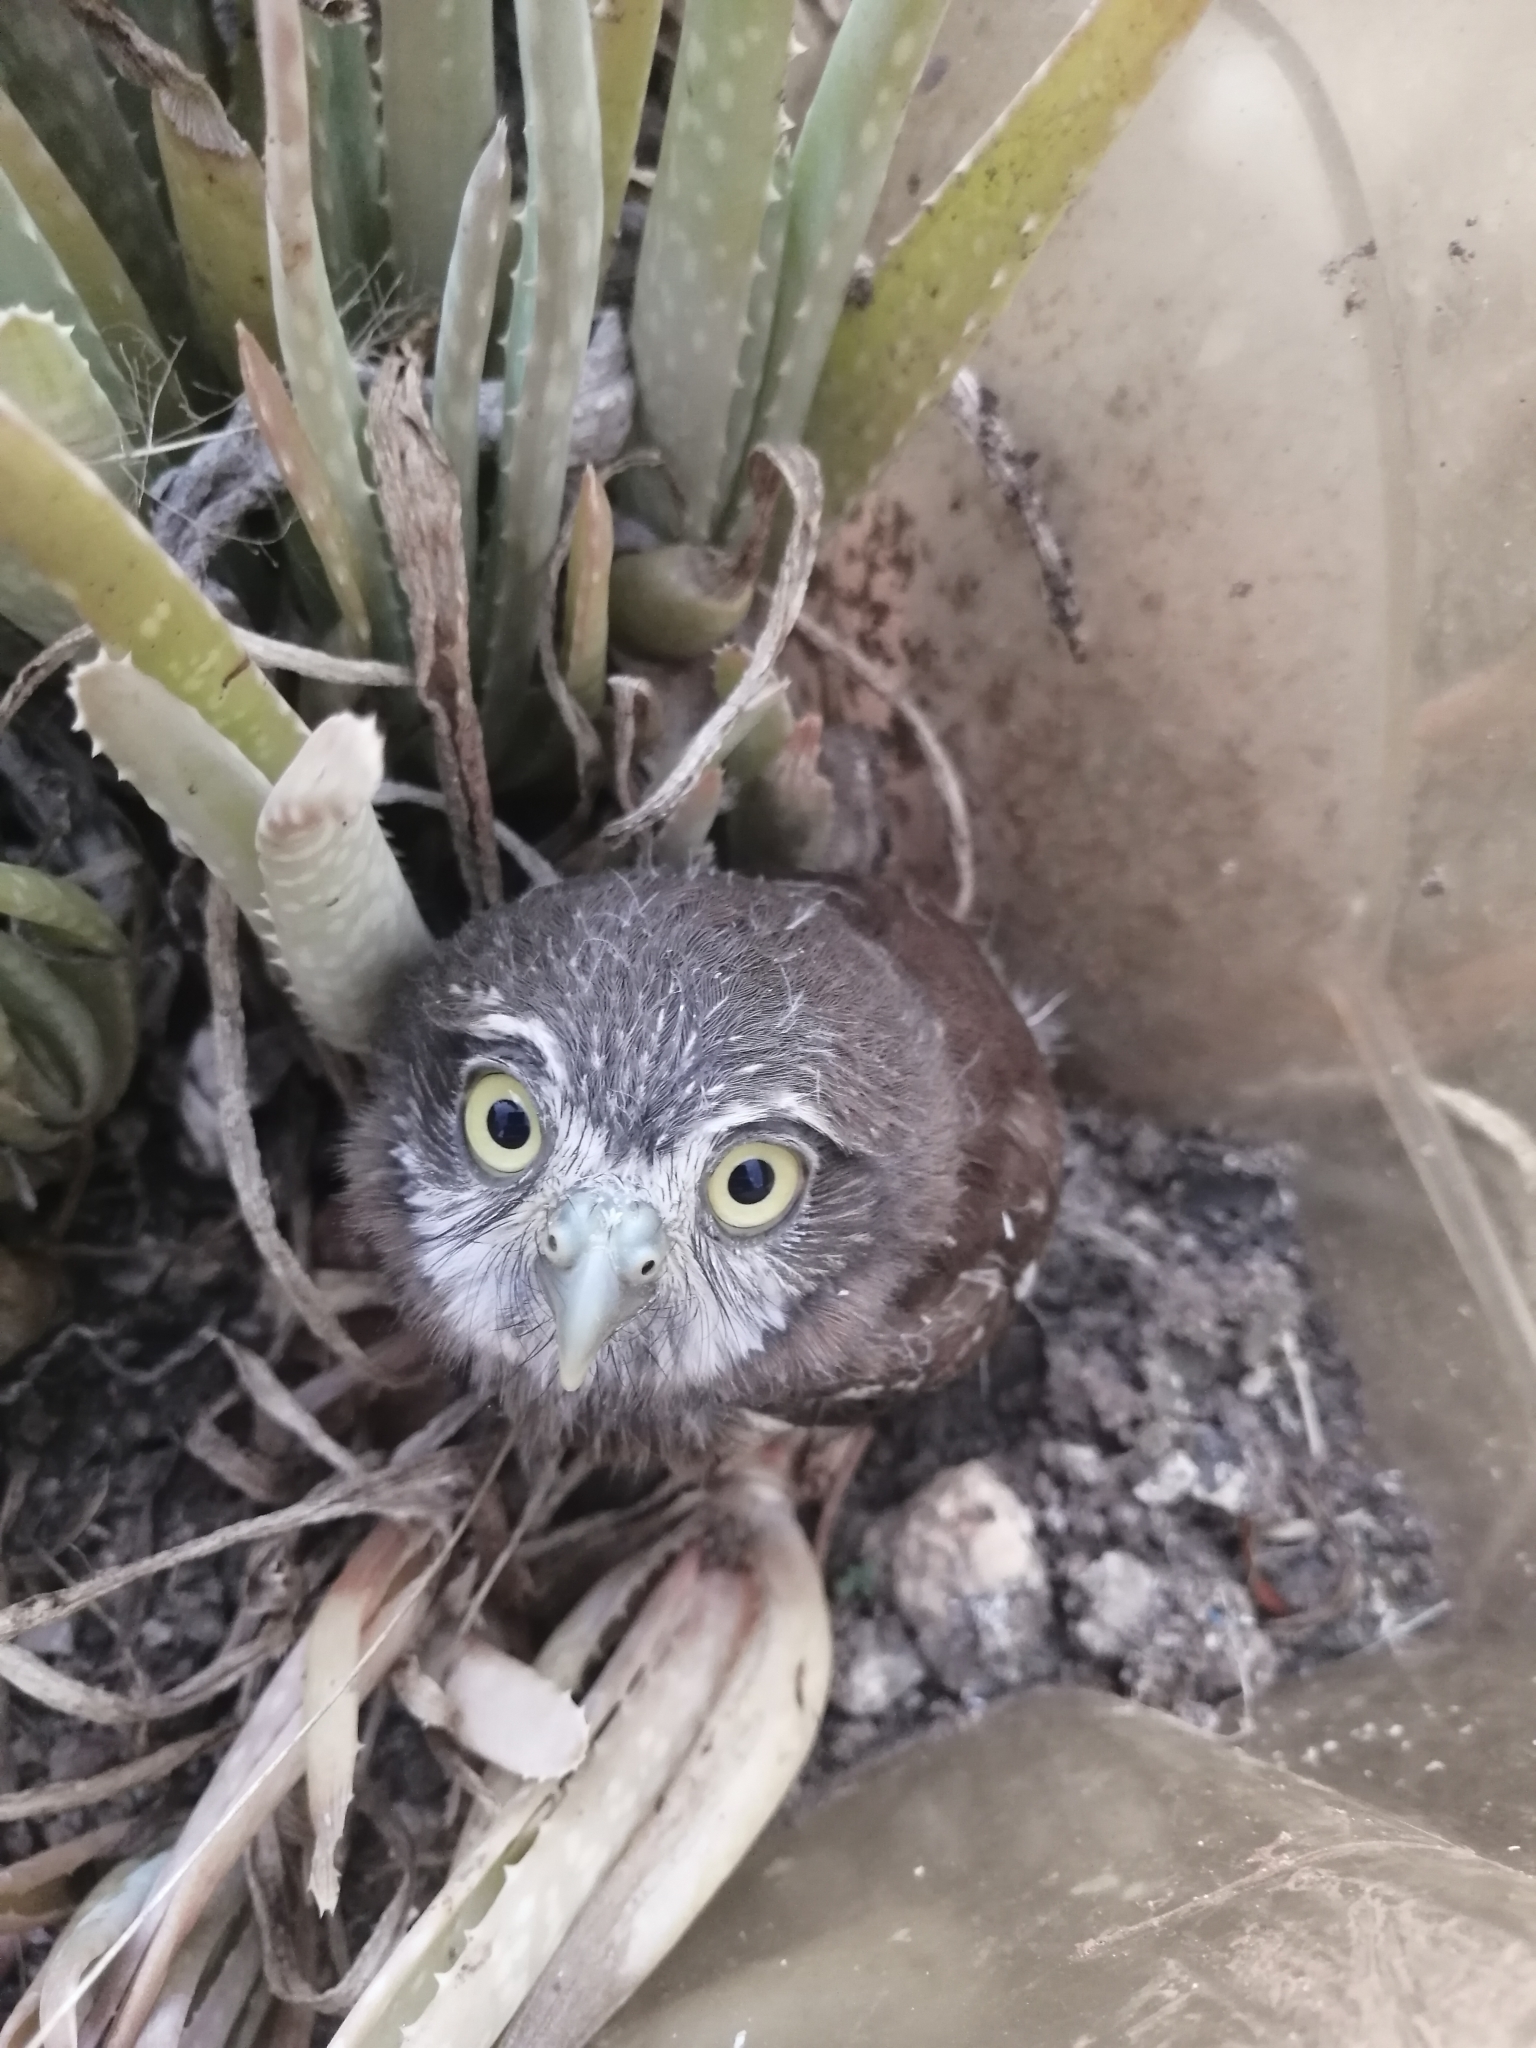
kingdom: Animalia
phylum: Chordata
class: Aves
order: Strigiformes
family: Strigidae
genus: Glaucidium
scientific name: Glaucidium brasilianum
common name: Ferruginous pygmy-owl
